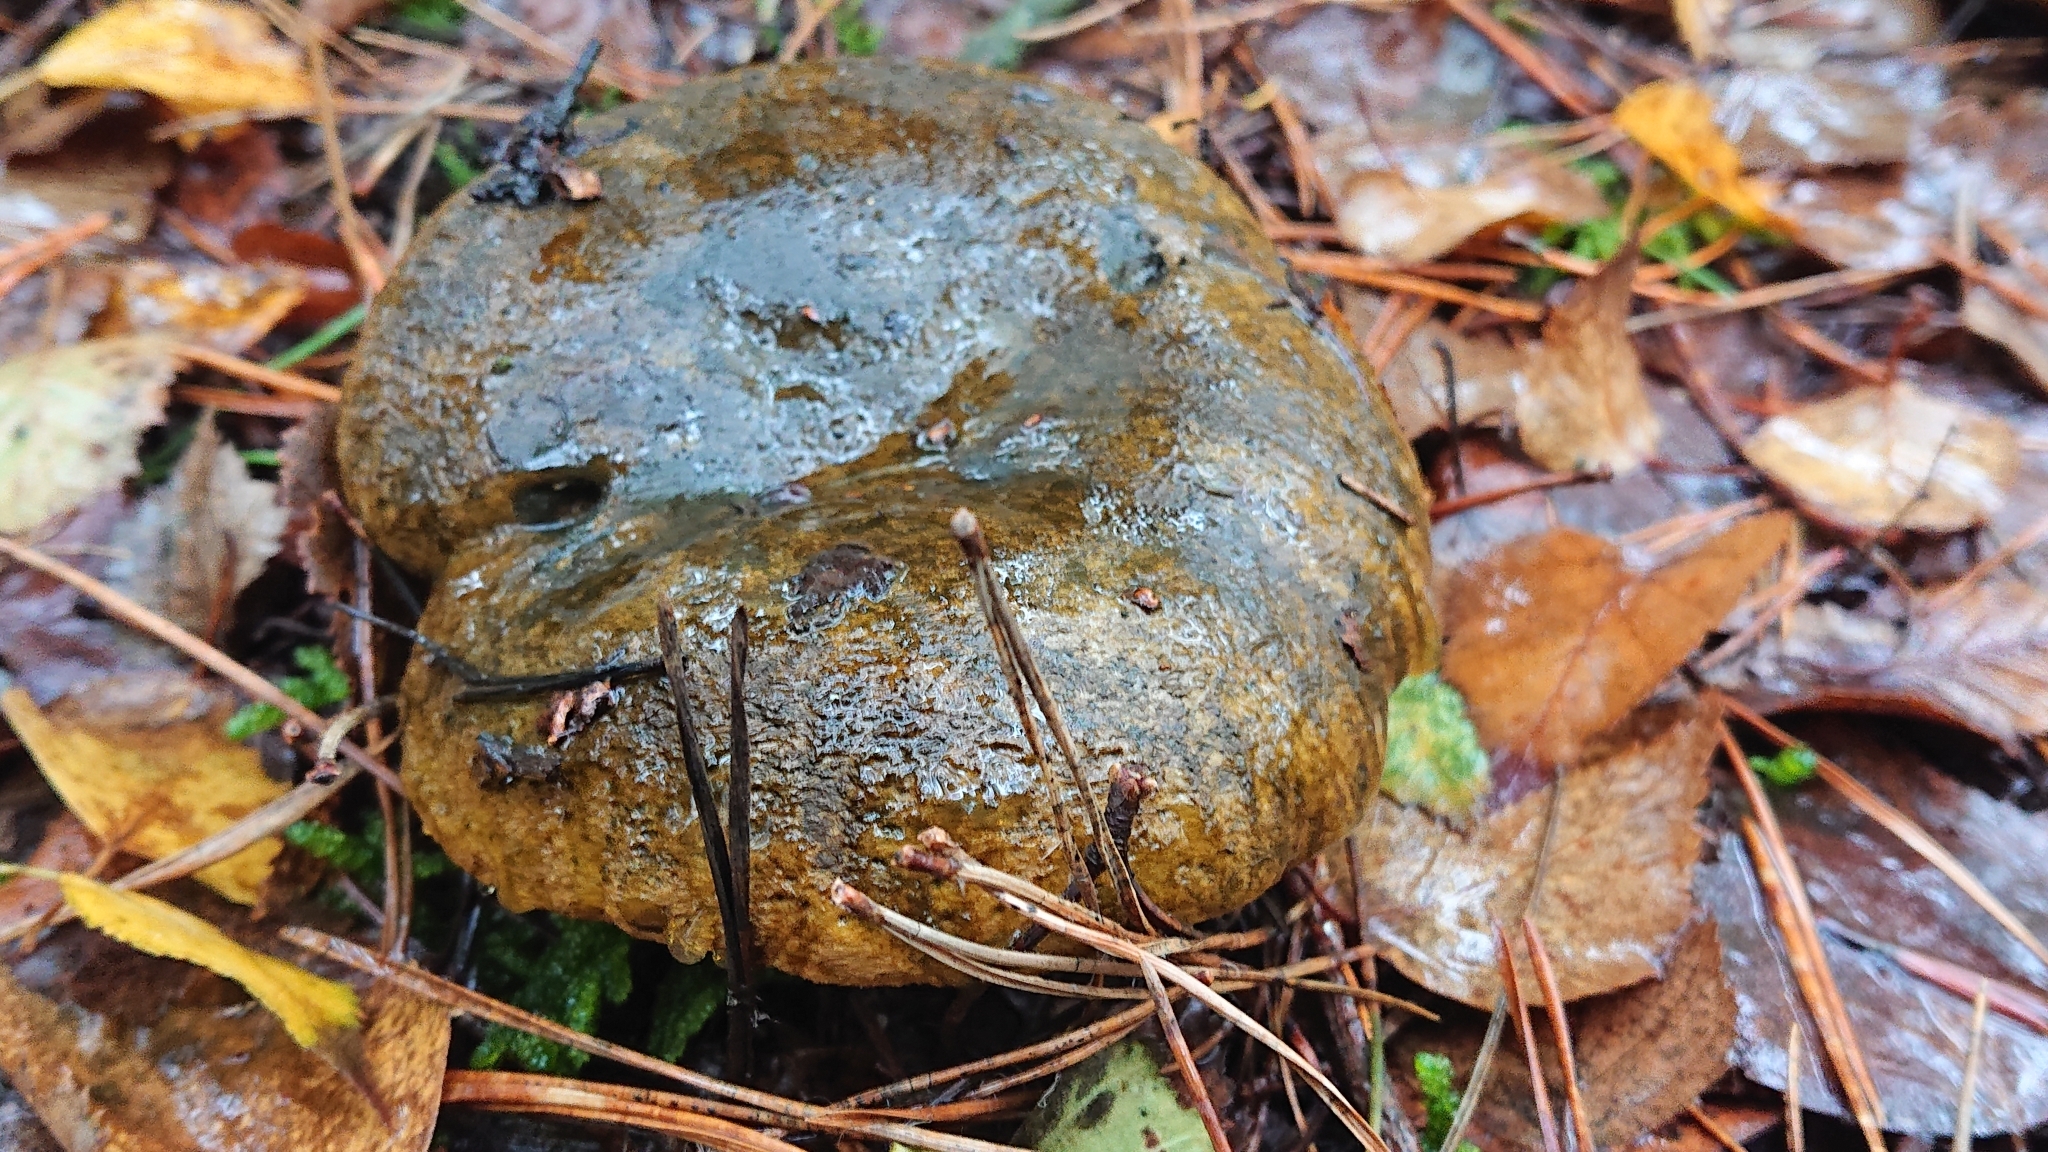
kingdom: Fungi
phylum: Basidiomycota
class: Agaricomycetes
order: Russulales
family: Russulaceae
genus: Lactarius
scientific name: Lactarius turpis
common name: Ugly milk-cap
